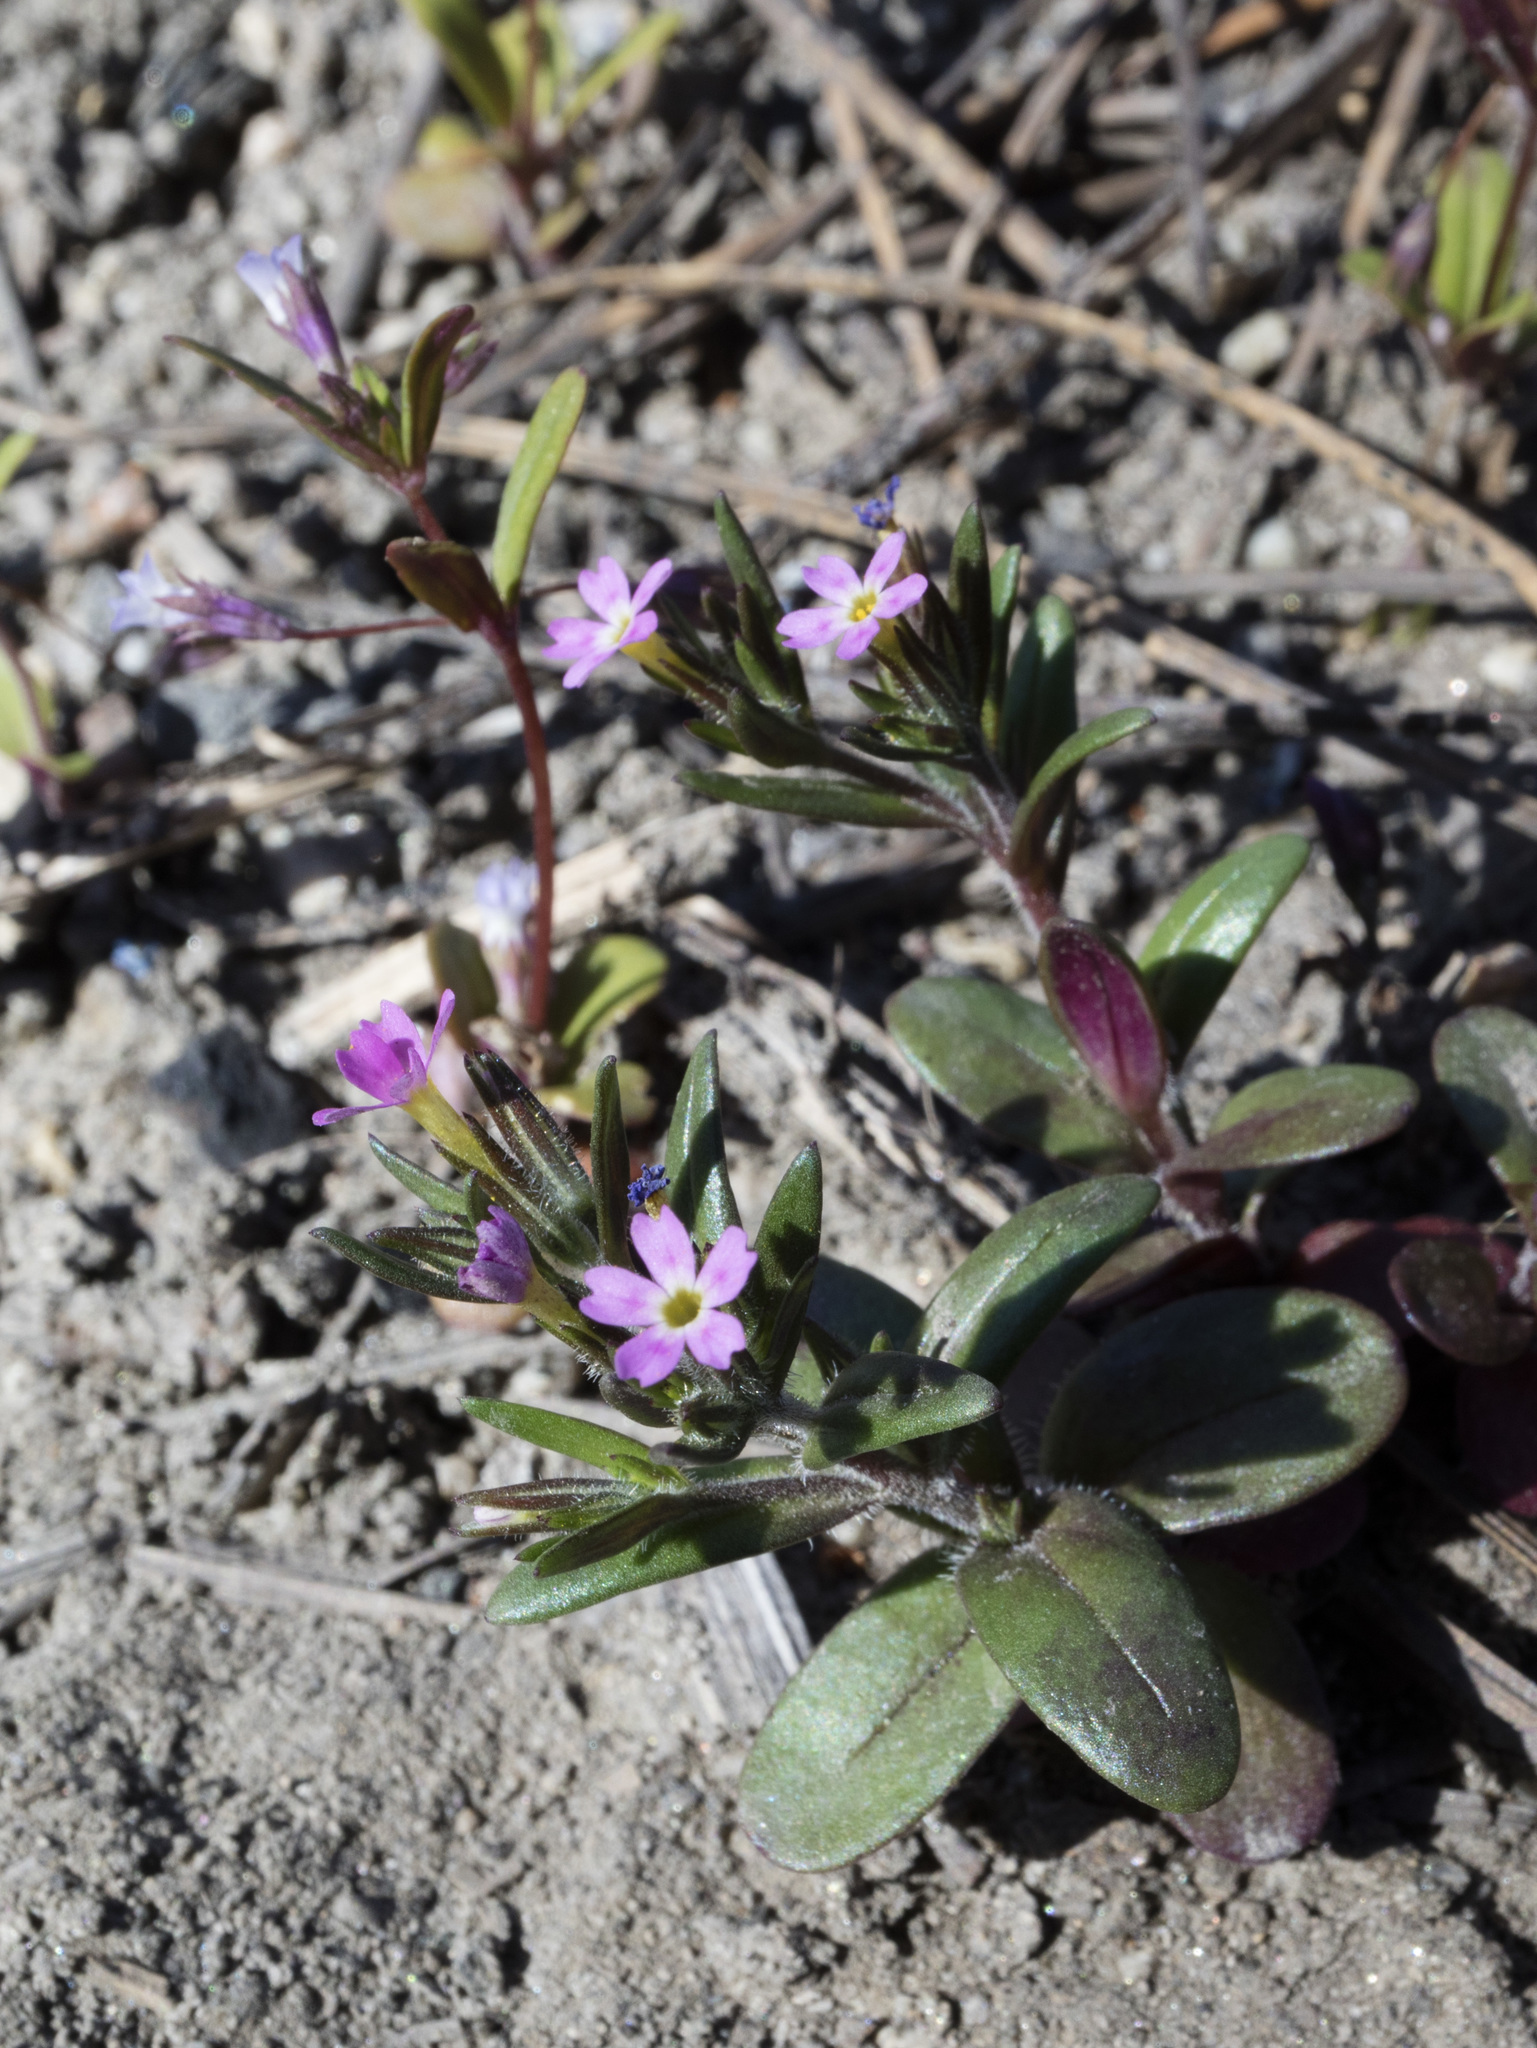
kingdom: Plantae
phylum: Tracheophyta
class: Magnoliopsida
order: Ericales
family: Polemoniaceae
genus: Phlox
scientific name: Phlox gracilis
